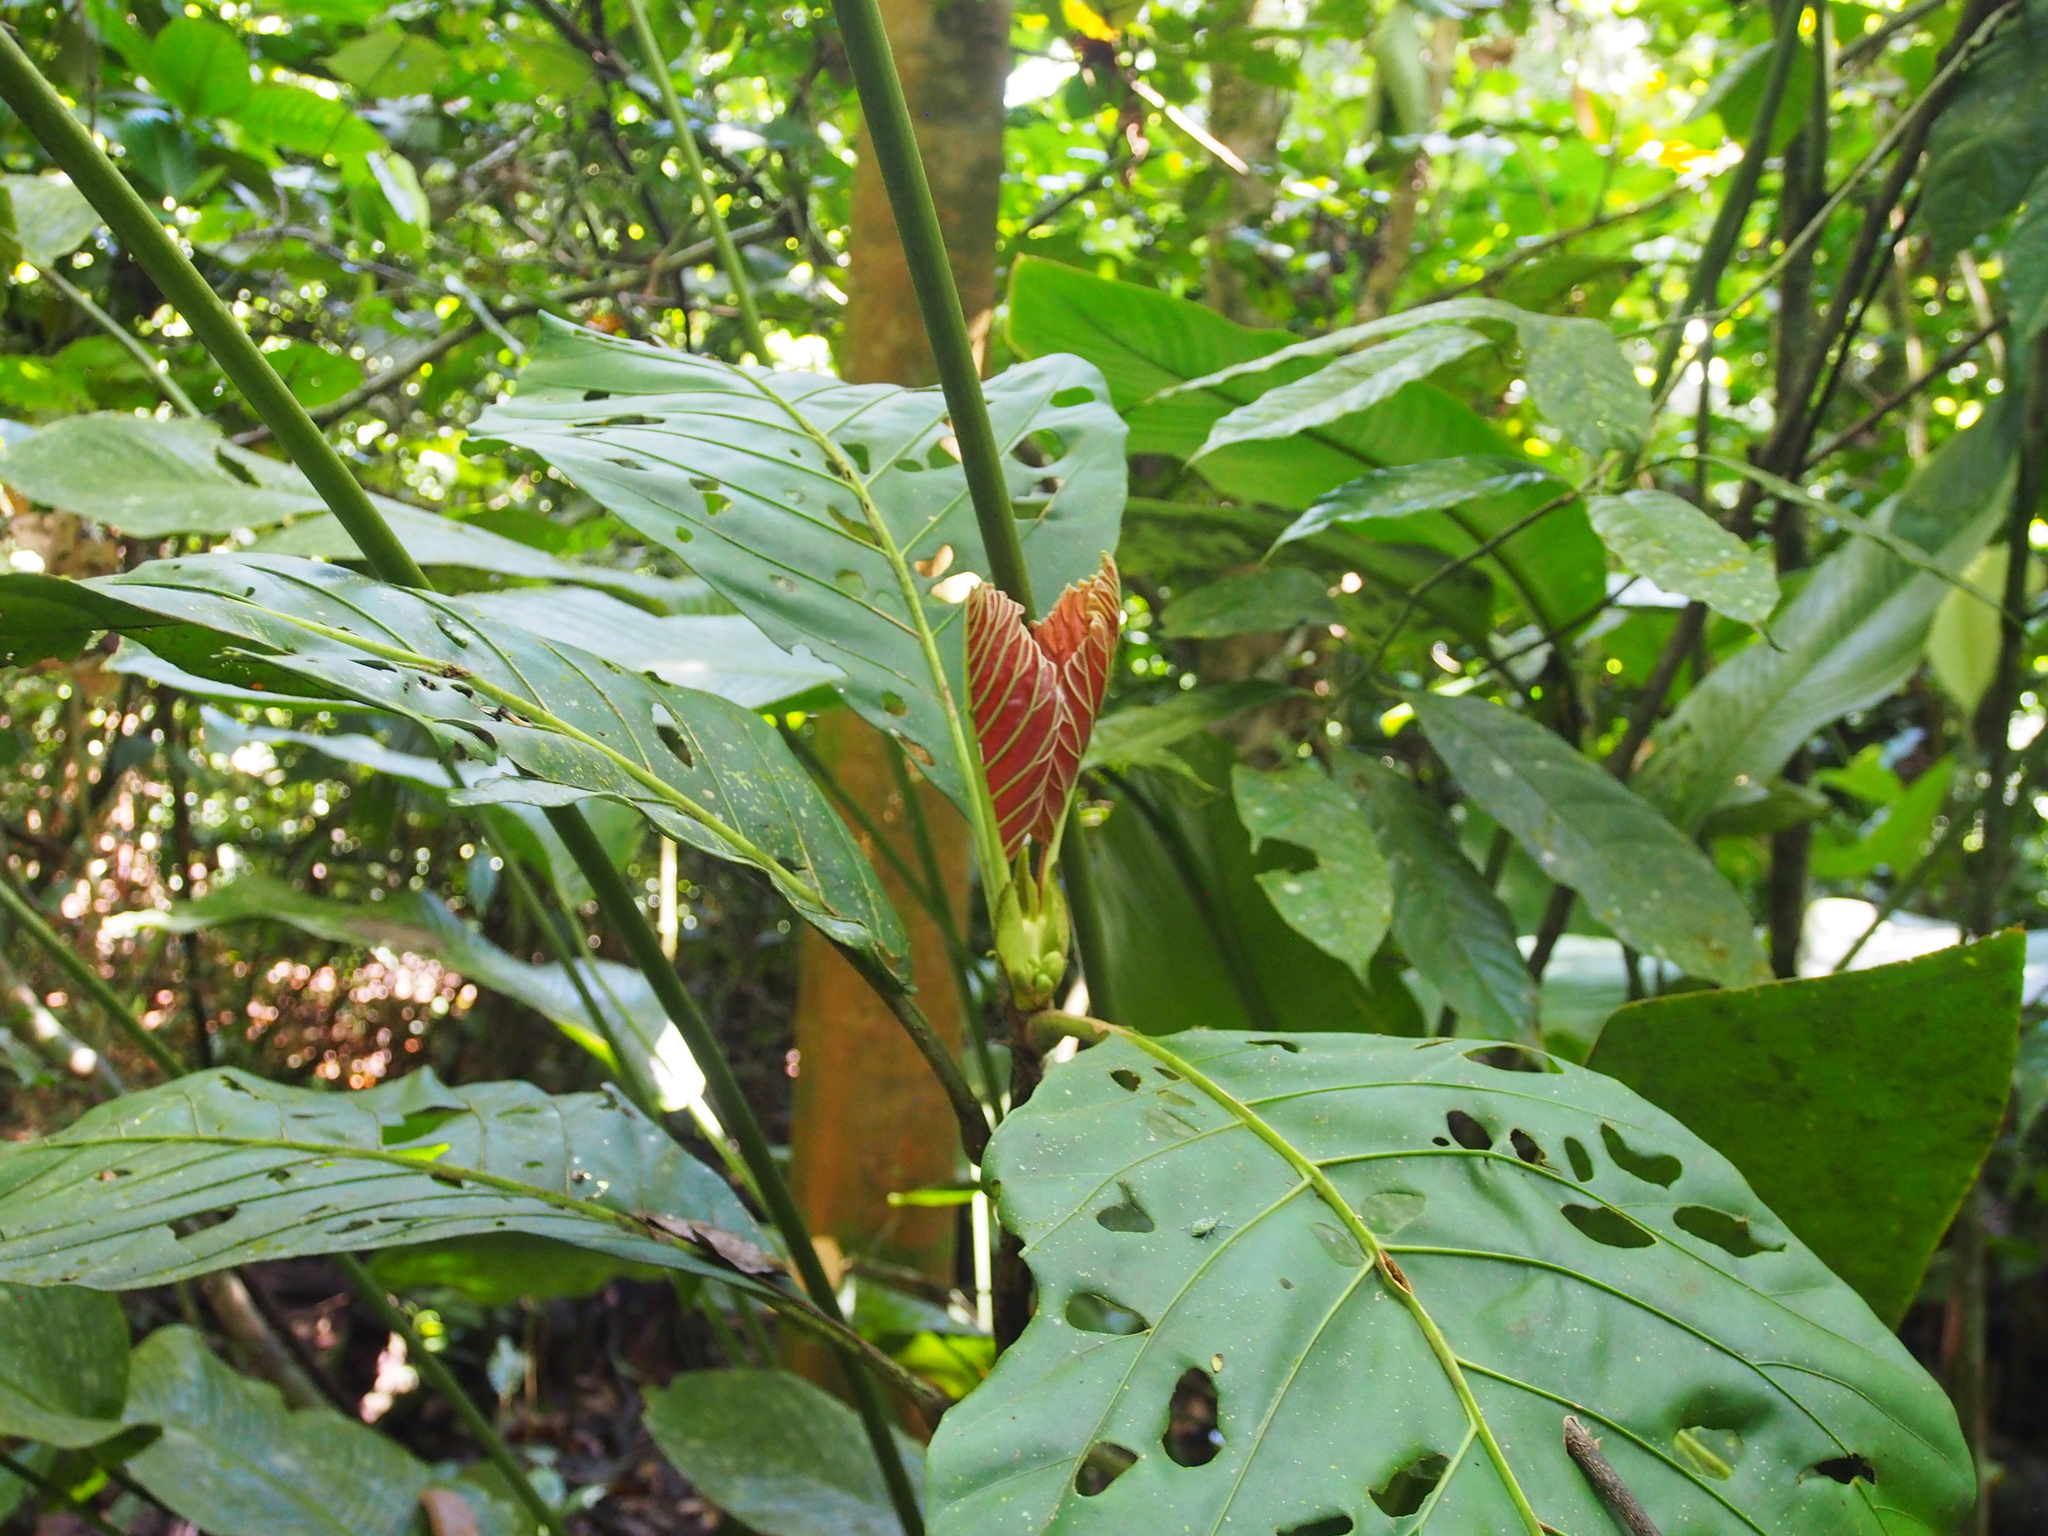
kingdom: Plantae
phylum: Tracheophyta
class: Magnoliopsida
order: Gentianales
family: Rubiaceae
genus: Pentagonia
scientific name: Pentagonia donnell-smithii
